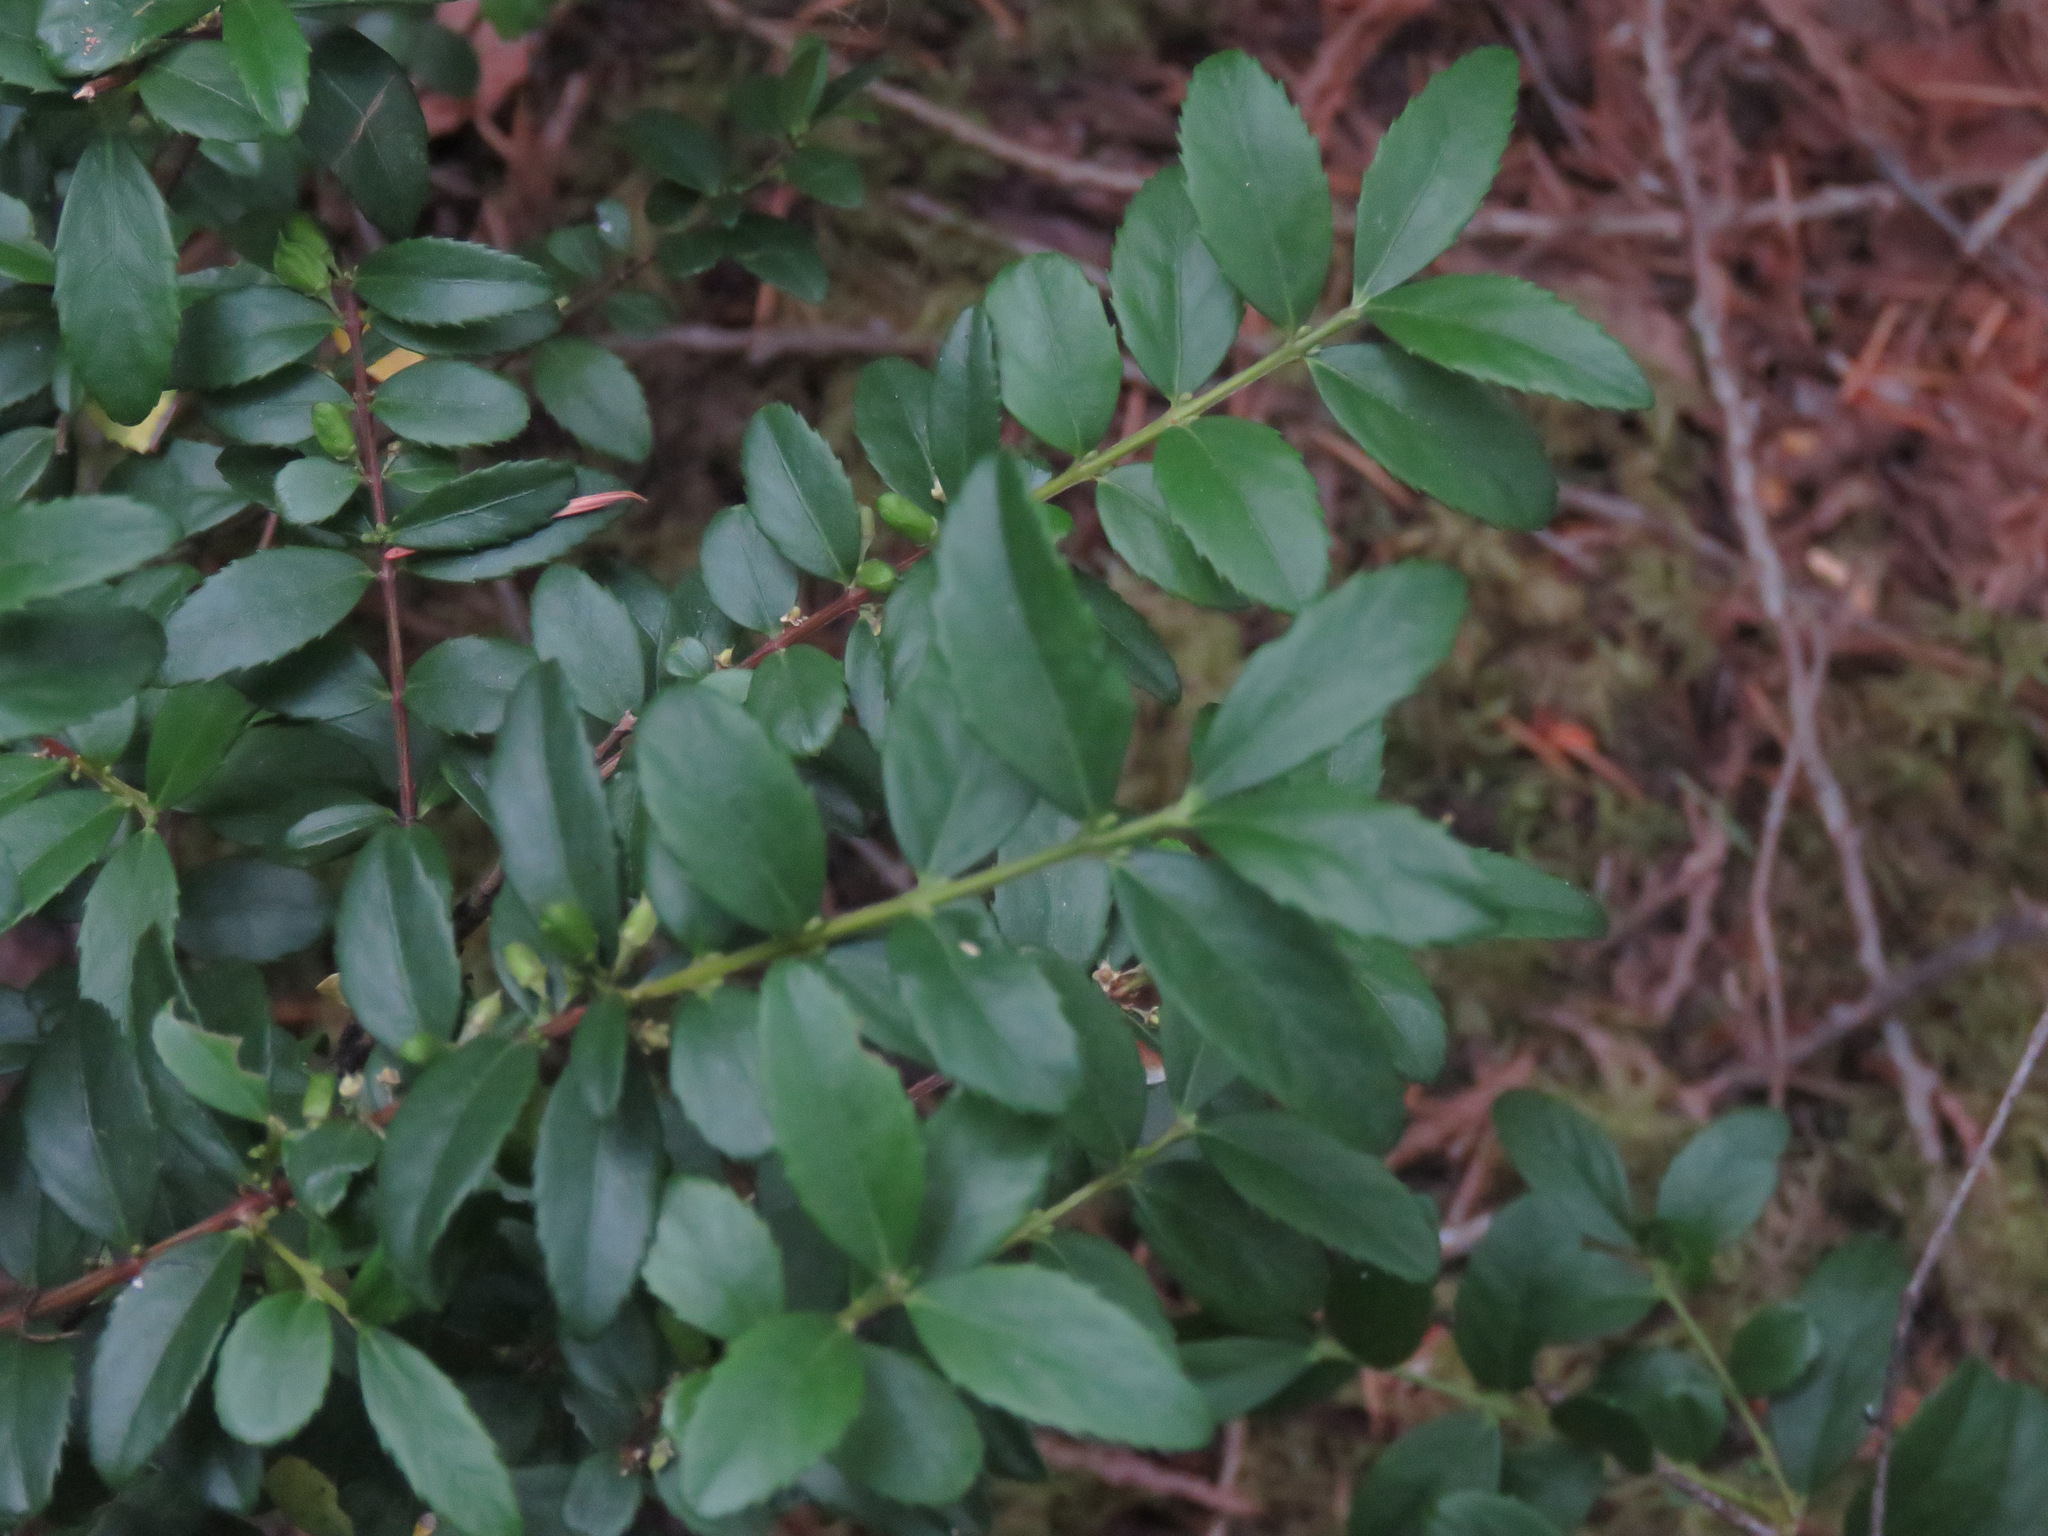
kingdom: Plantae
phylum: Tracheophyta
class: Magnoliopsida
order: Celastrales
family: Celastraceae
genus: Paxistima
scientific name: Paxistima myrsinites
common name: Mountain-lover
